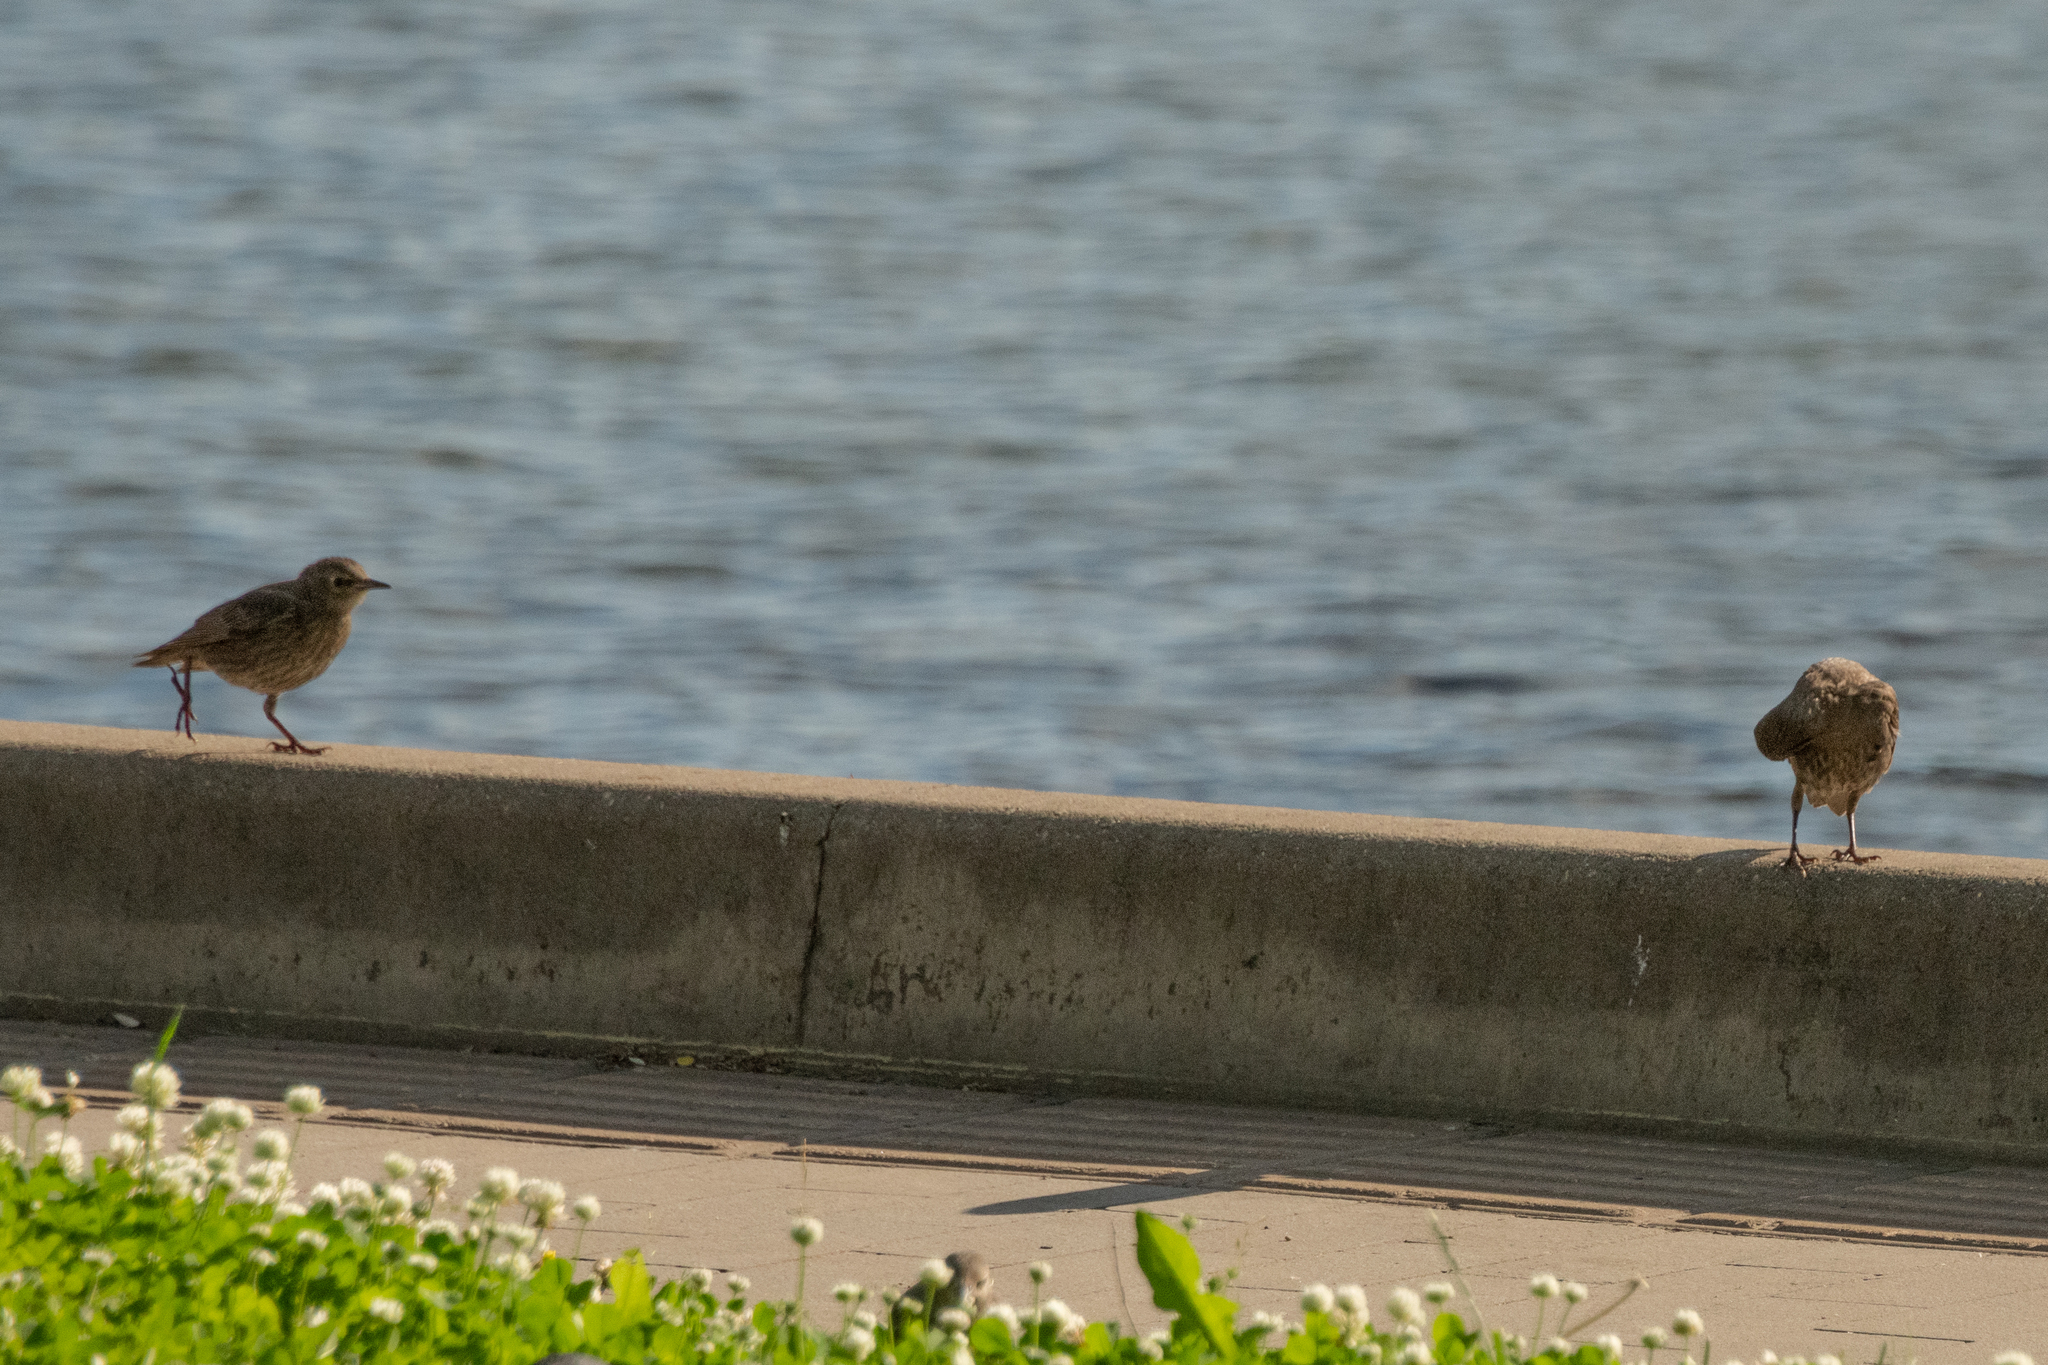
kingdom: Animalia
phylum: Chordata
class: Aves
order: Passeriformes
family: Sturnidae
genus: Sturnus
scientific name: Sturnus vulgaris
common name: Common starling
